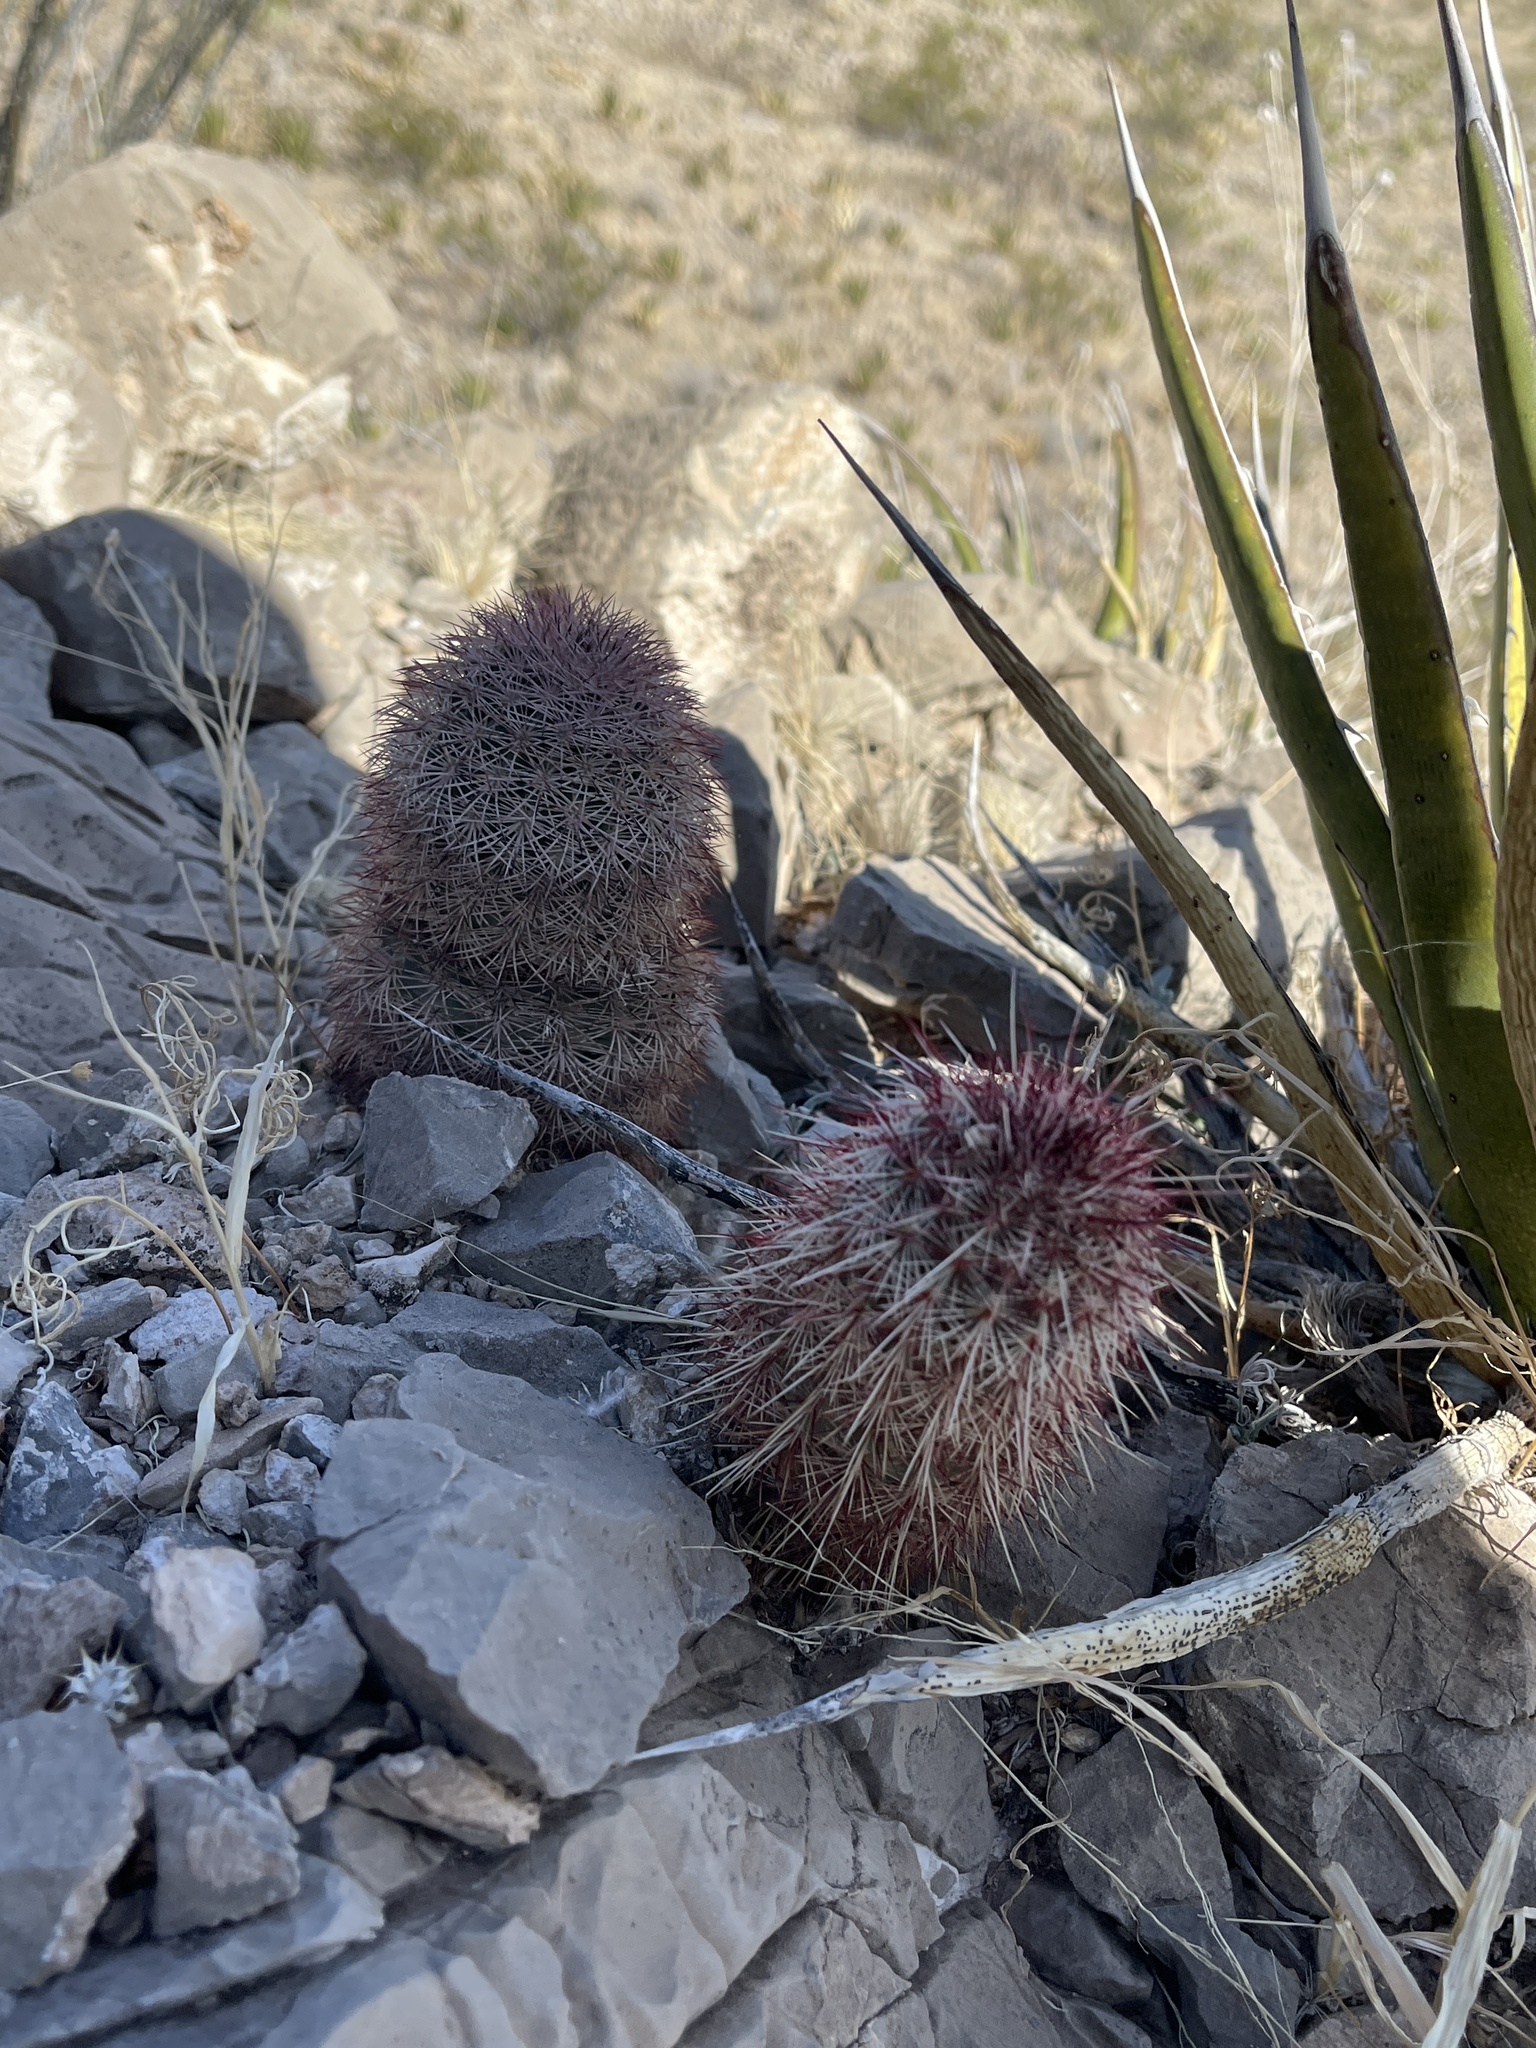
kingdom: Plantae
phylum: Tracheophyta
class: Magnoliopsida
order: Caryophyllales
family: Cactaceae
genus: Echinocereus
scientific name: Echinocereus dasyacanthus
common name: Spiny hedgehog cactus
